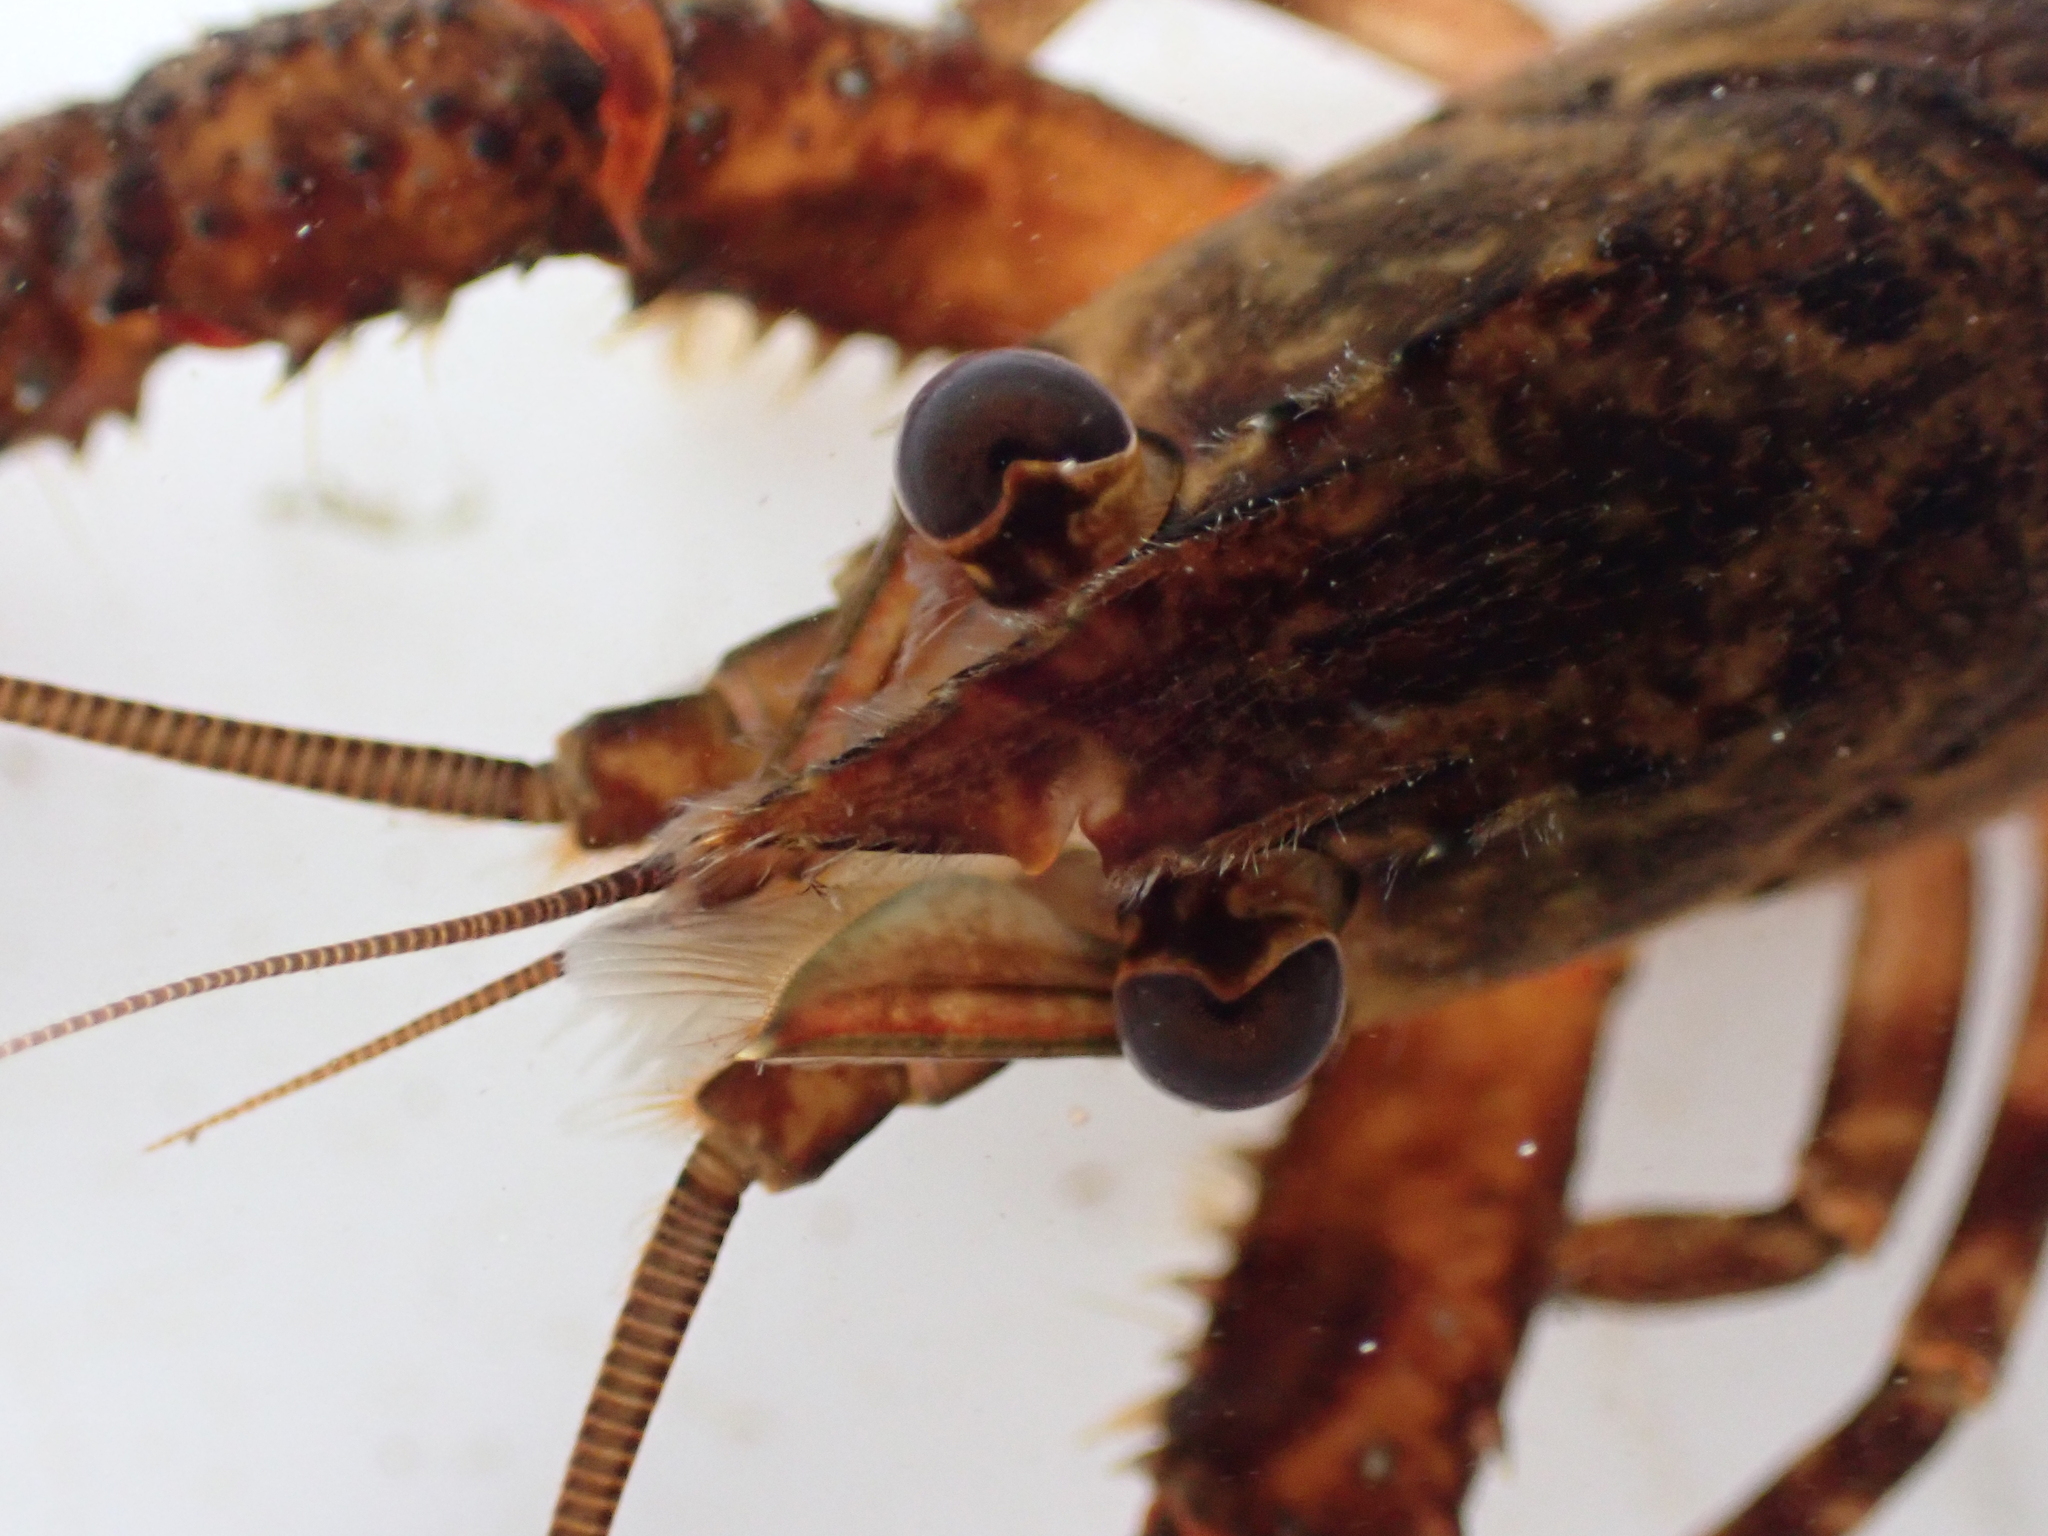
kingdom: Animalia
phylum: Arthropoda
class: Malacostraca
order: Decapoda
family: Parastacidae
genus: Paranephrops
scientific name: Paranephrops planifrons
